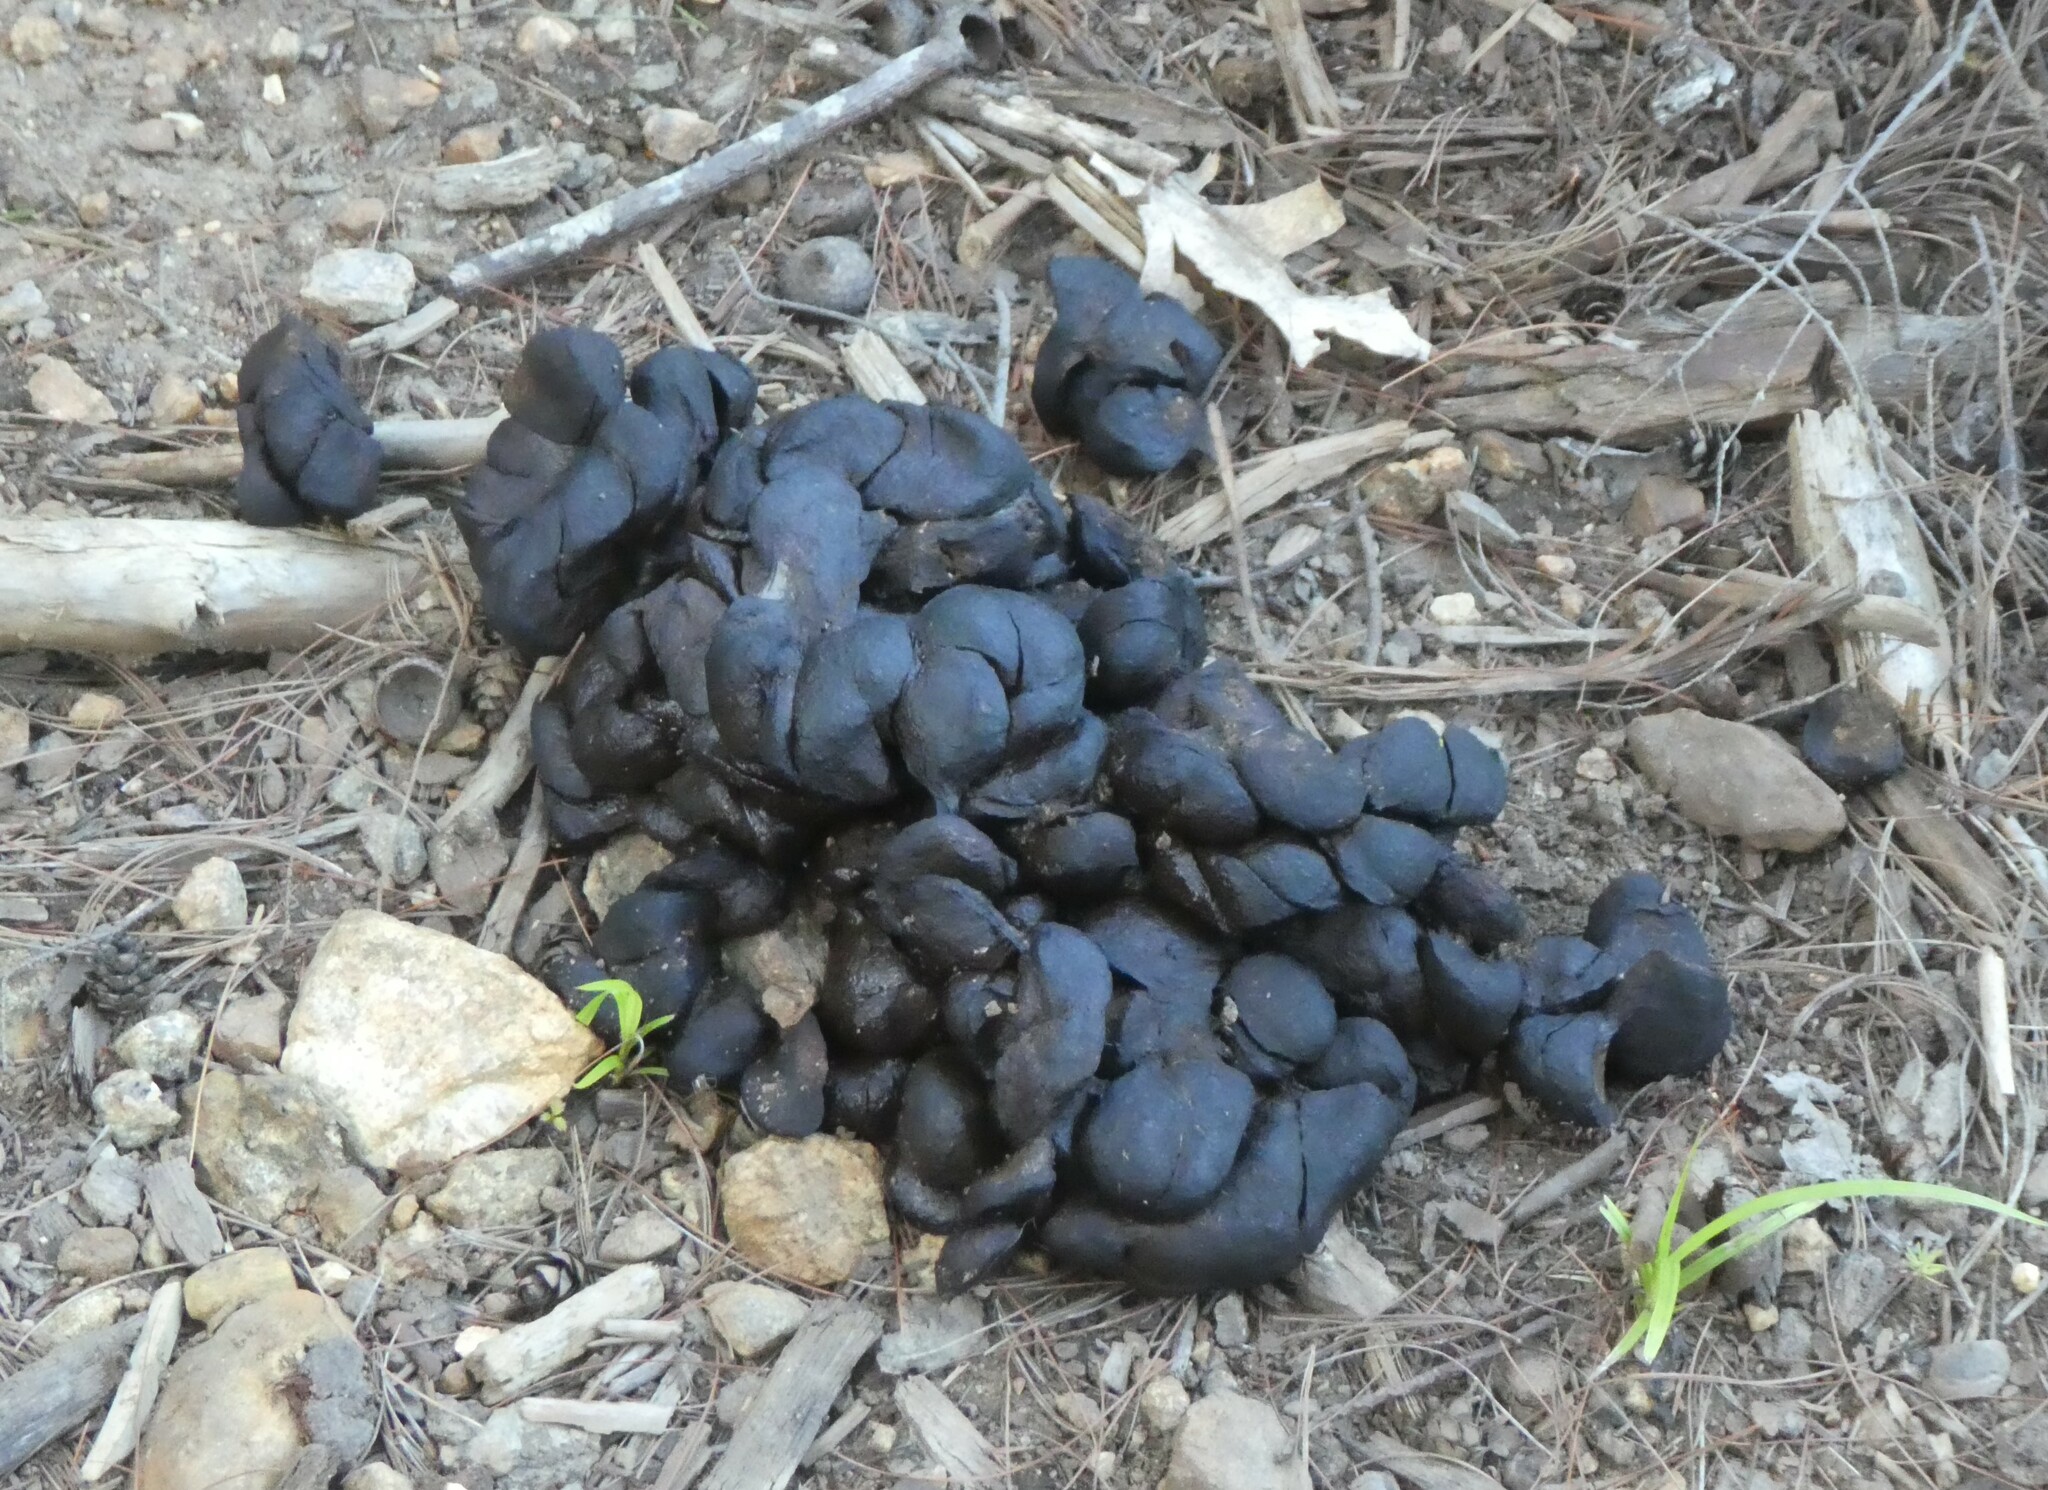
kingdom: Animalia
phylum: Chordata
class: Mammalia
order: Artiodactyla
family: Cervidae
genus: Alces
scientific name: Alces alces
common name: Moose
